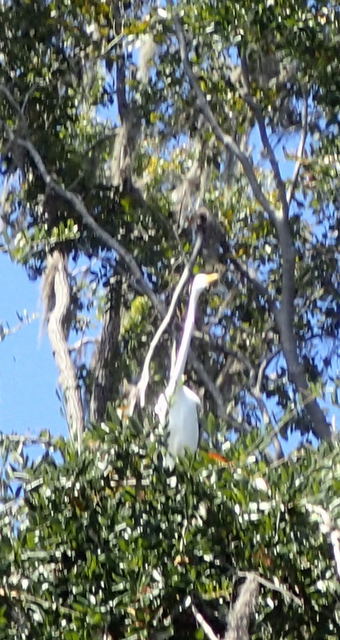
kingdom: Animalia
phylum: Chordata
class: Aves
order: Pelecaniformes
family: Ardeidae
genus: Ardea
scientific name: Ardea alba
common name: Great egret
